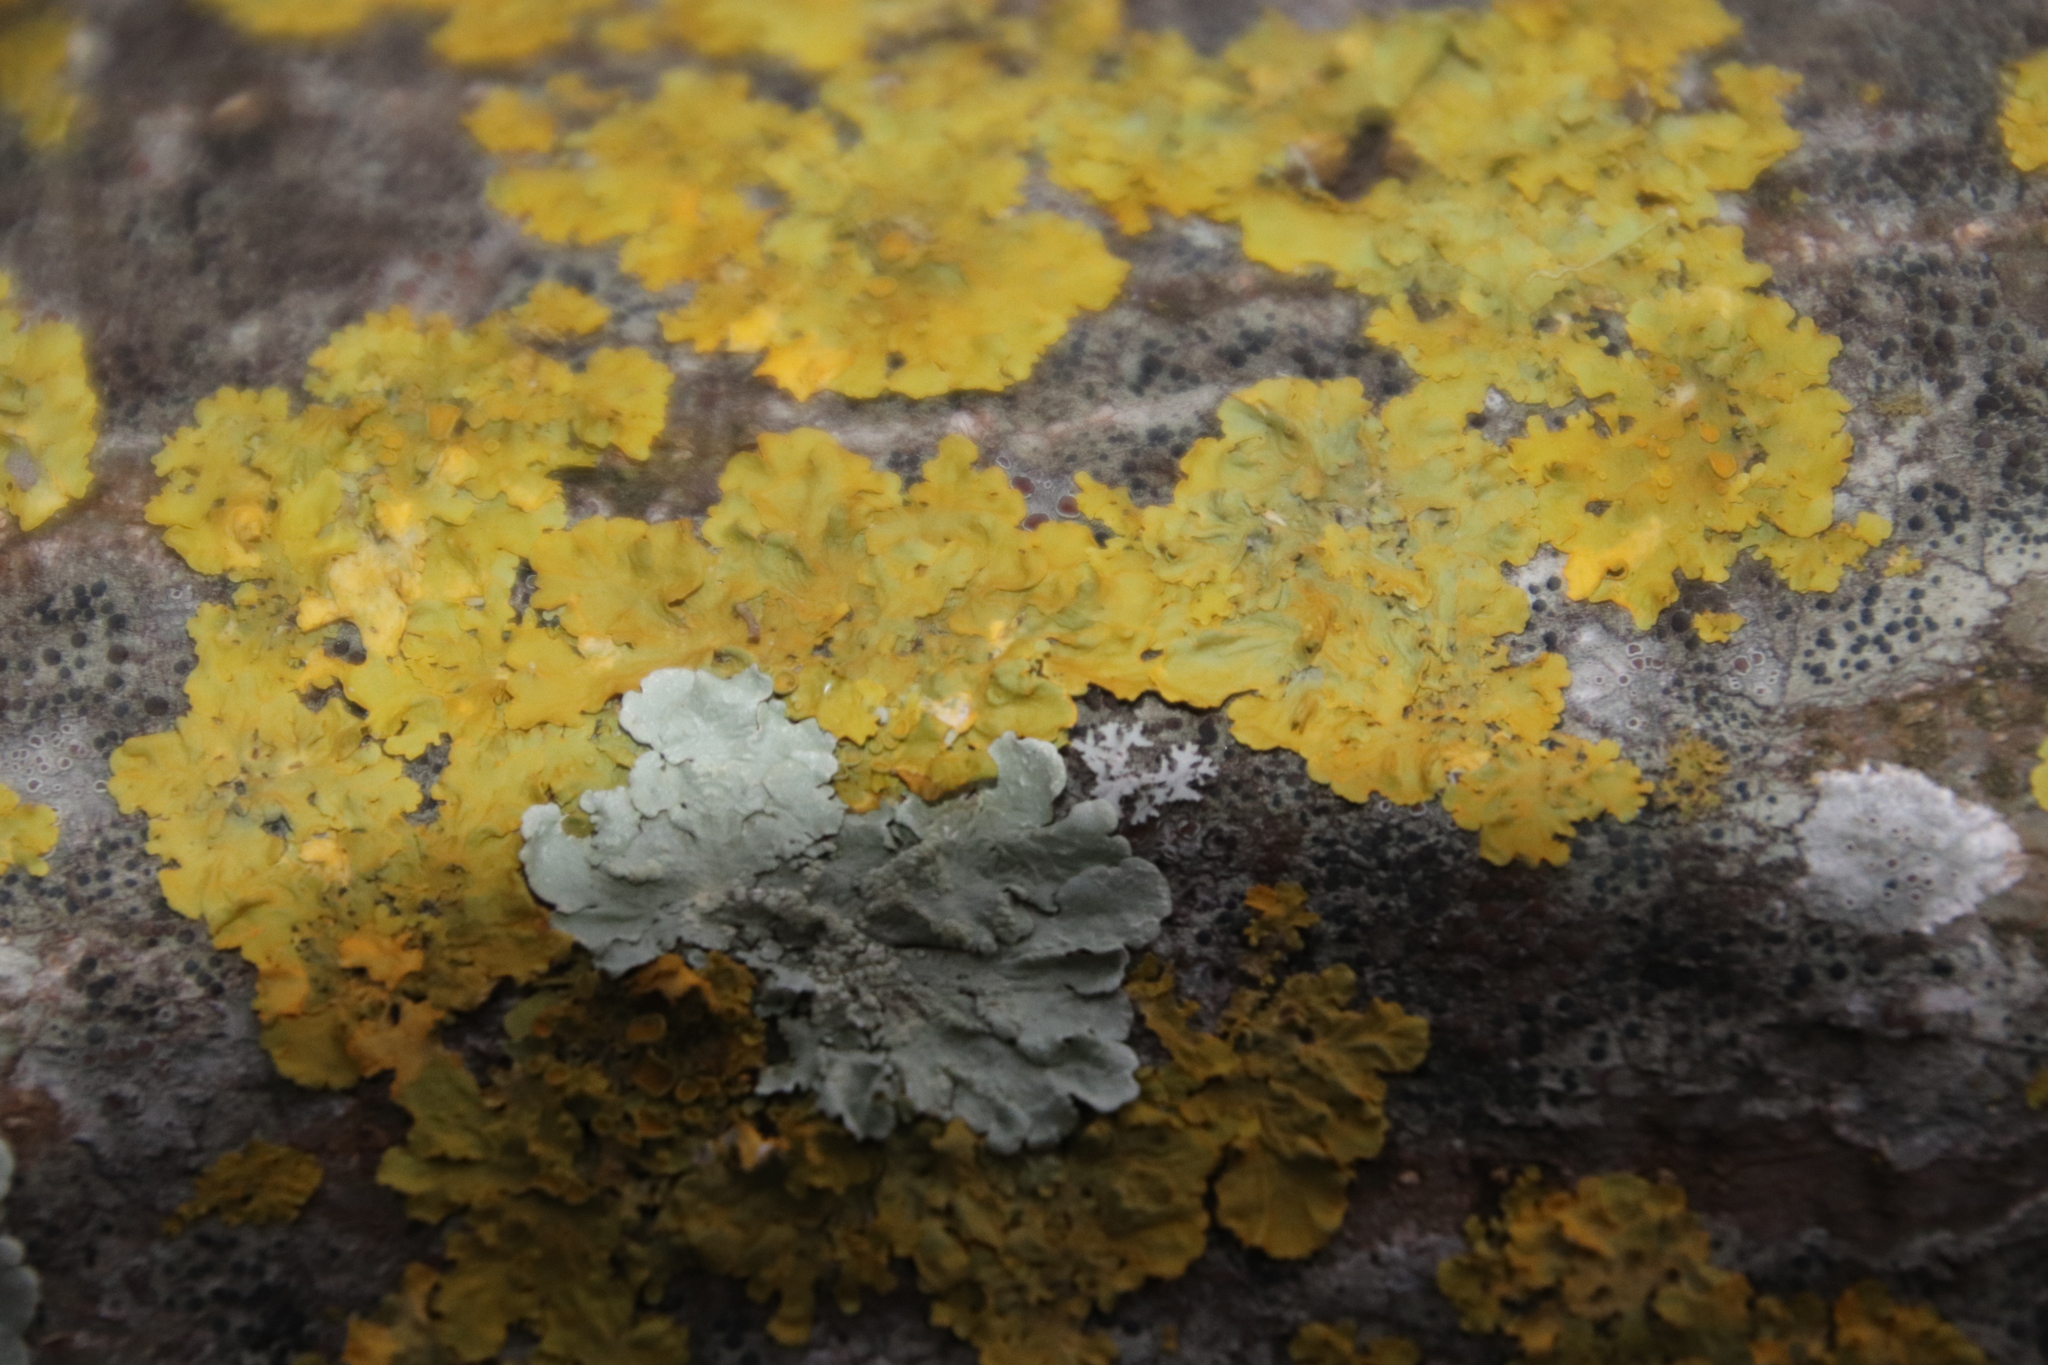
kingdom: Fungi
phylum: Ascomycota
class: Lecanoromycetes
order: Lecanorales
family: Parmeliaceae
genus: Flavoparmelia
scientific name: Flavoparmelia soredians
